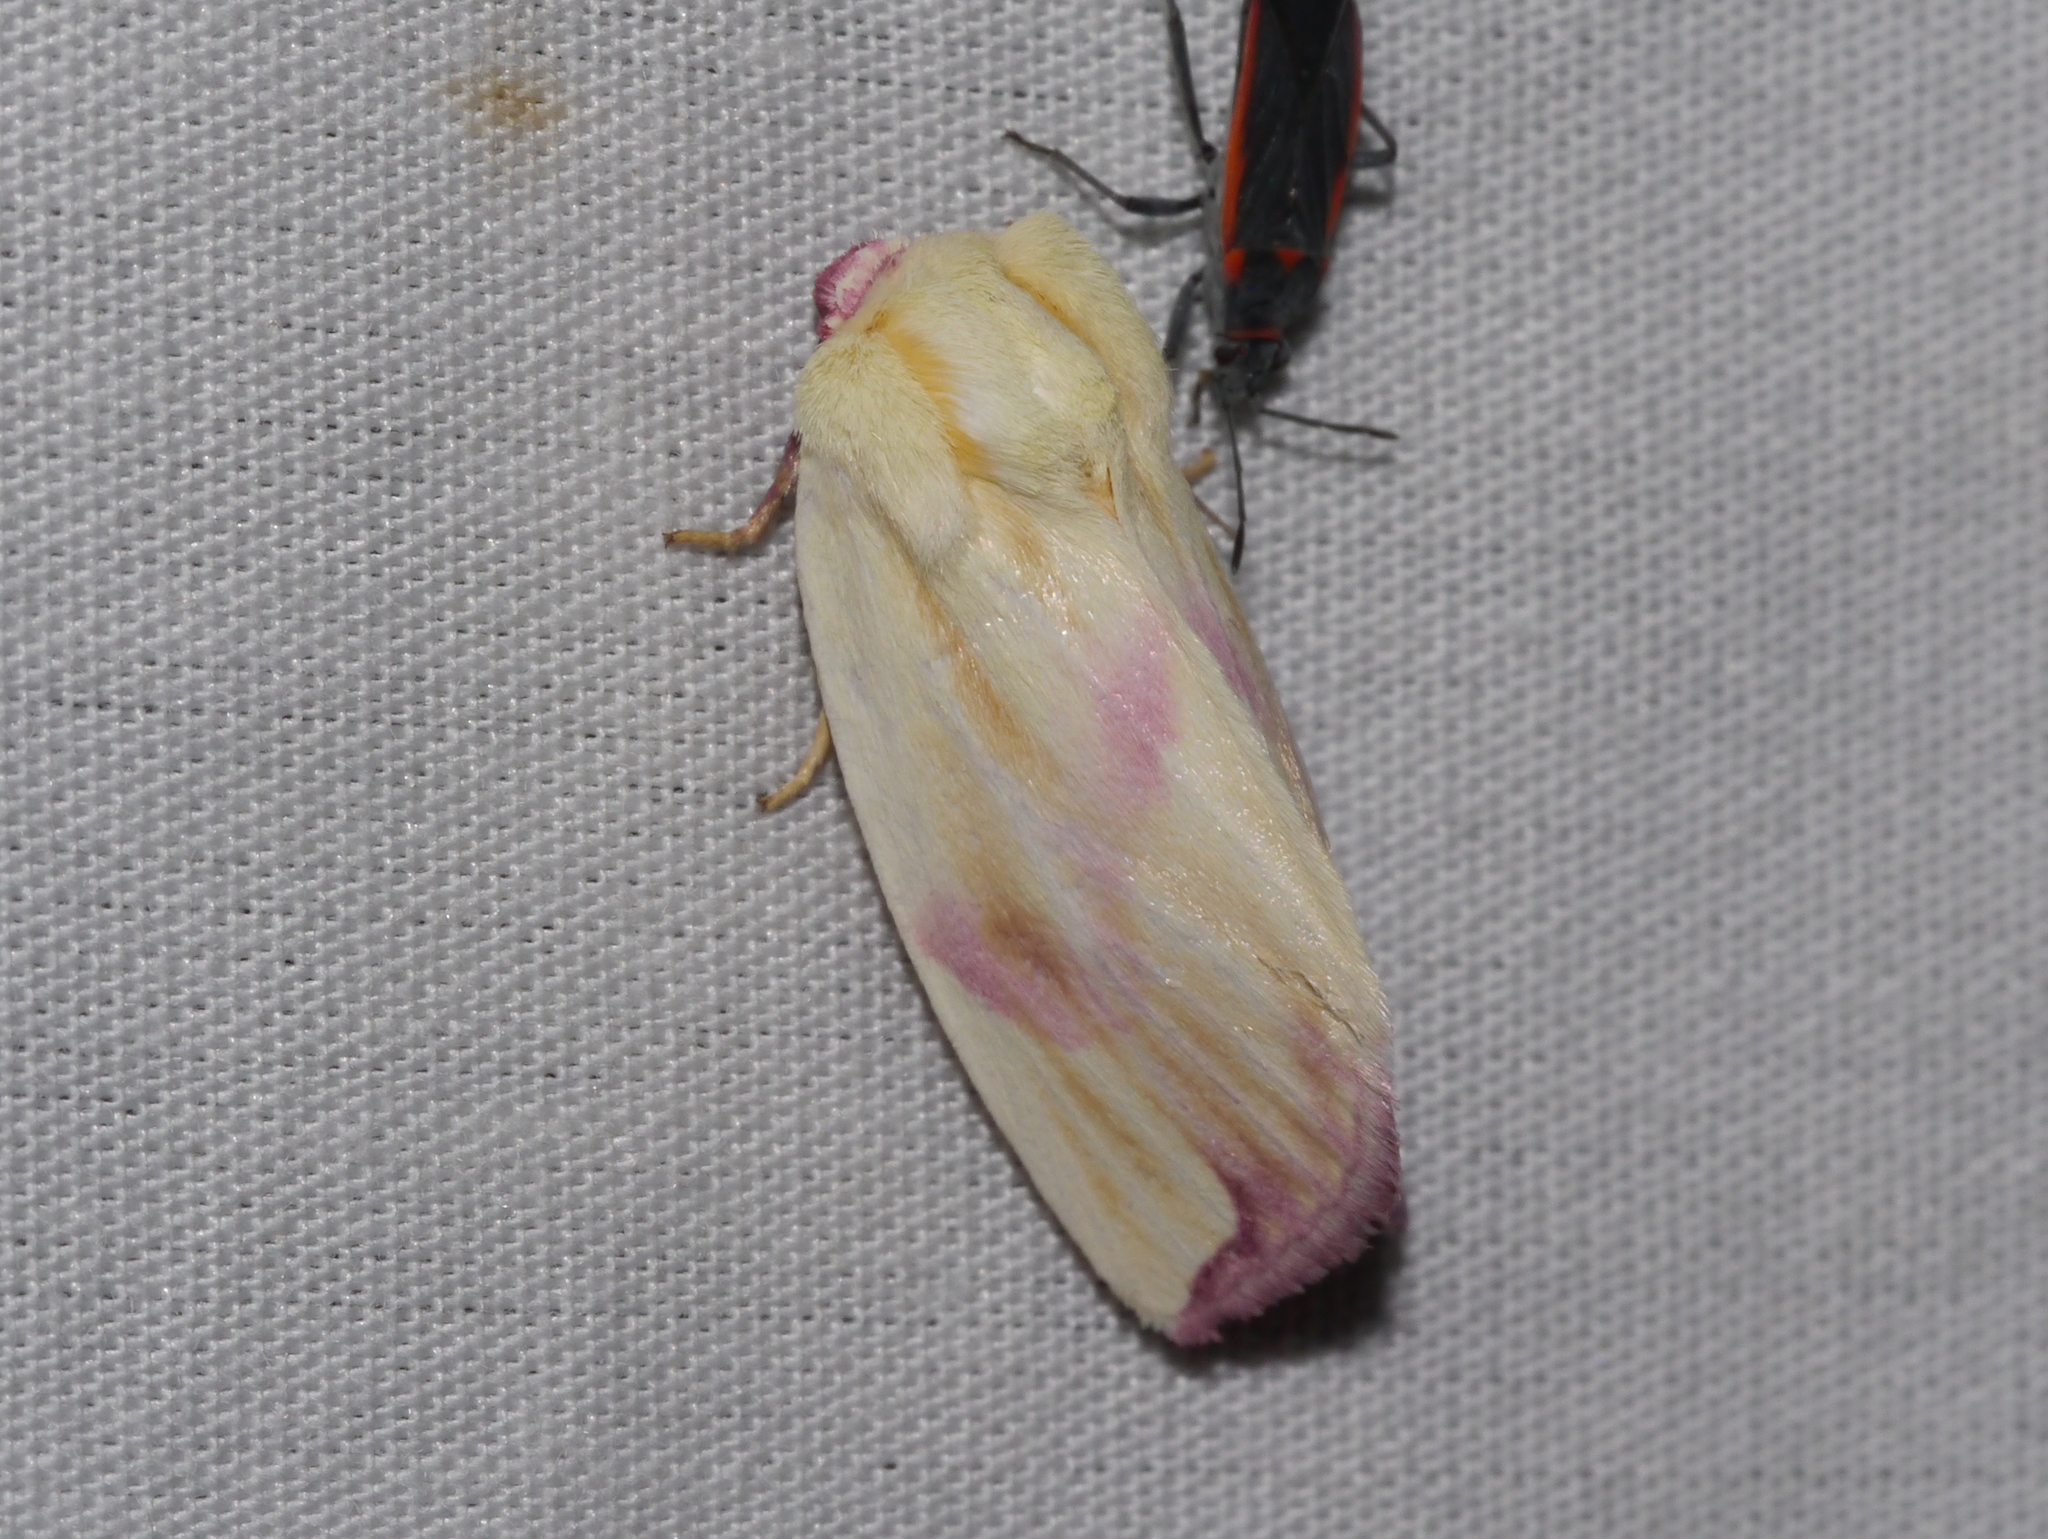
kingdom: Animalia
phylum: Arthropoda
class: Insecta
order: Lepidoptera
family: Noctuidae
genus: Thurberiphaga
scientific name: Thurberiphaga diffusa
